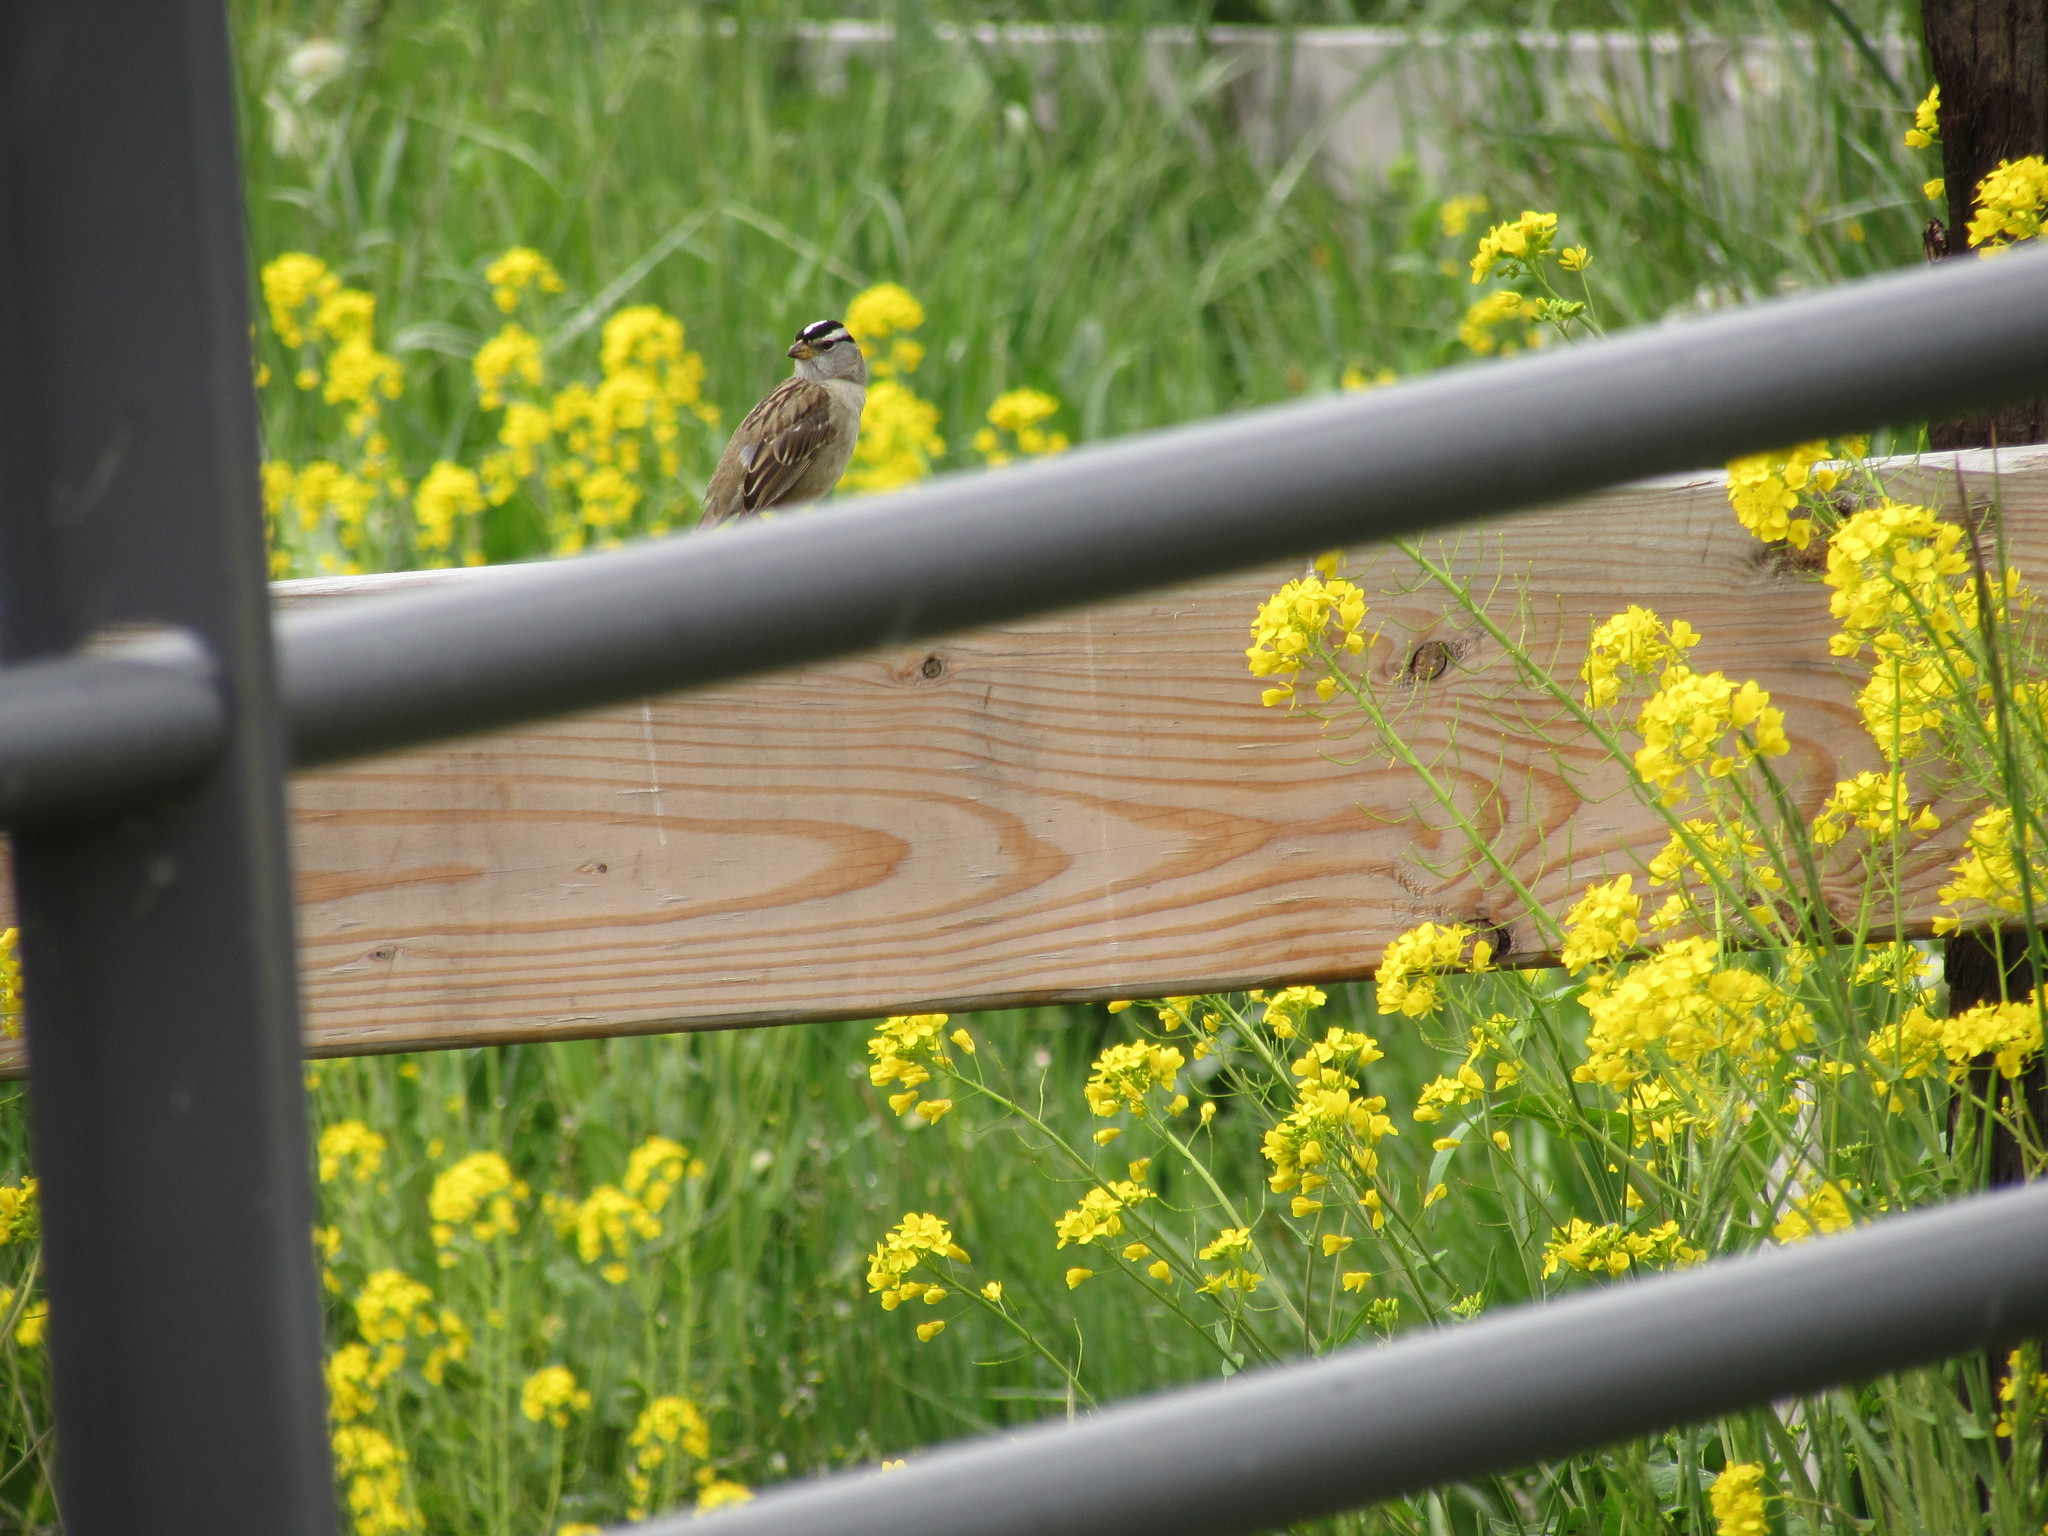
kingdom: Animalia
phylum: Chordata
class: Aves
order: Passeriformes
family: Passerellidae
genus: Zonotrichia
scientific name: Zonotrichia leucophrys
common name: White-crowned sparrow
